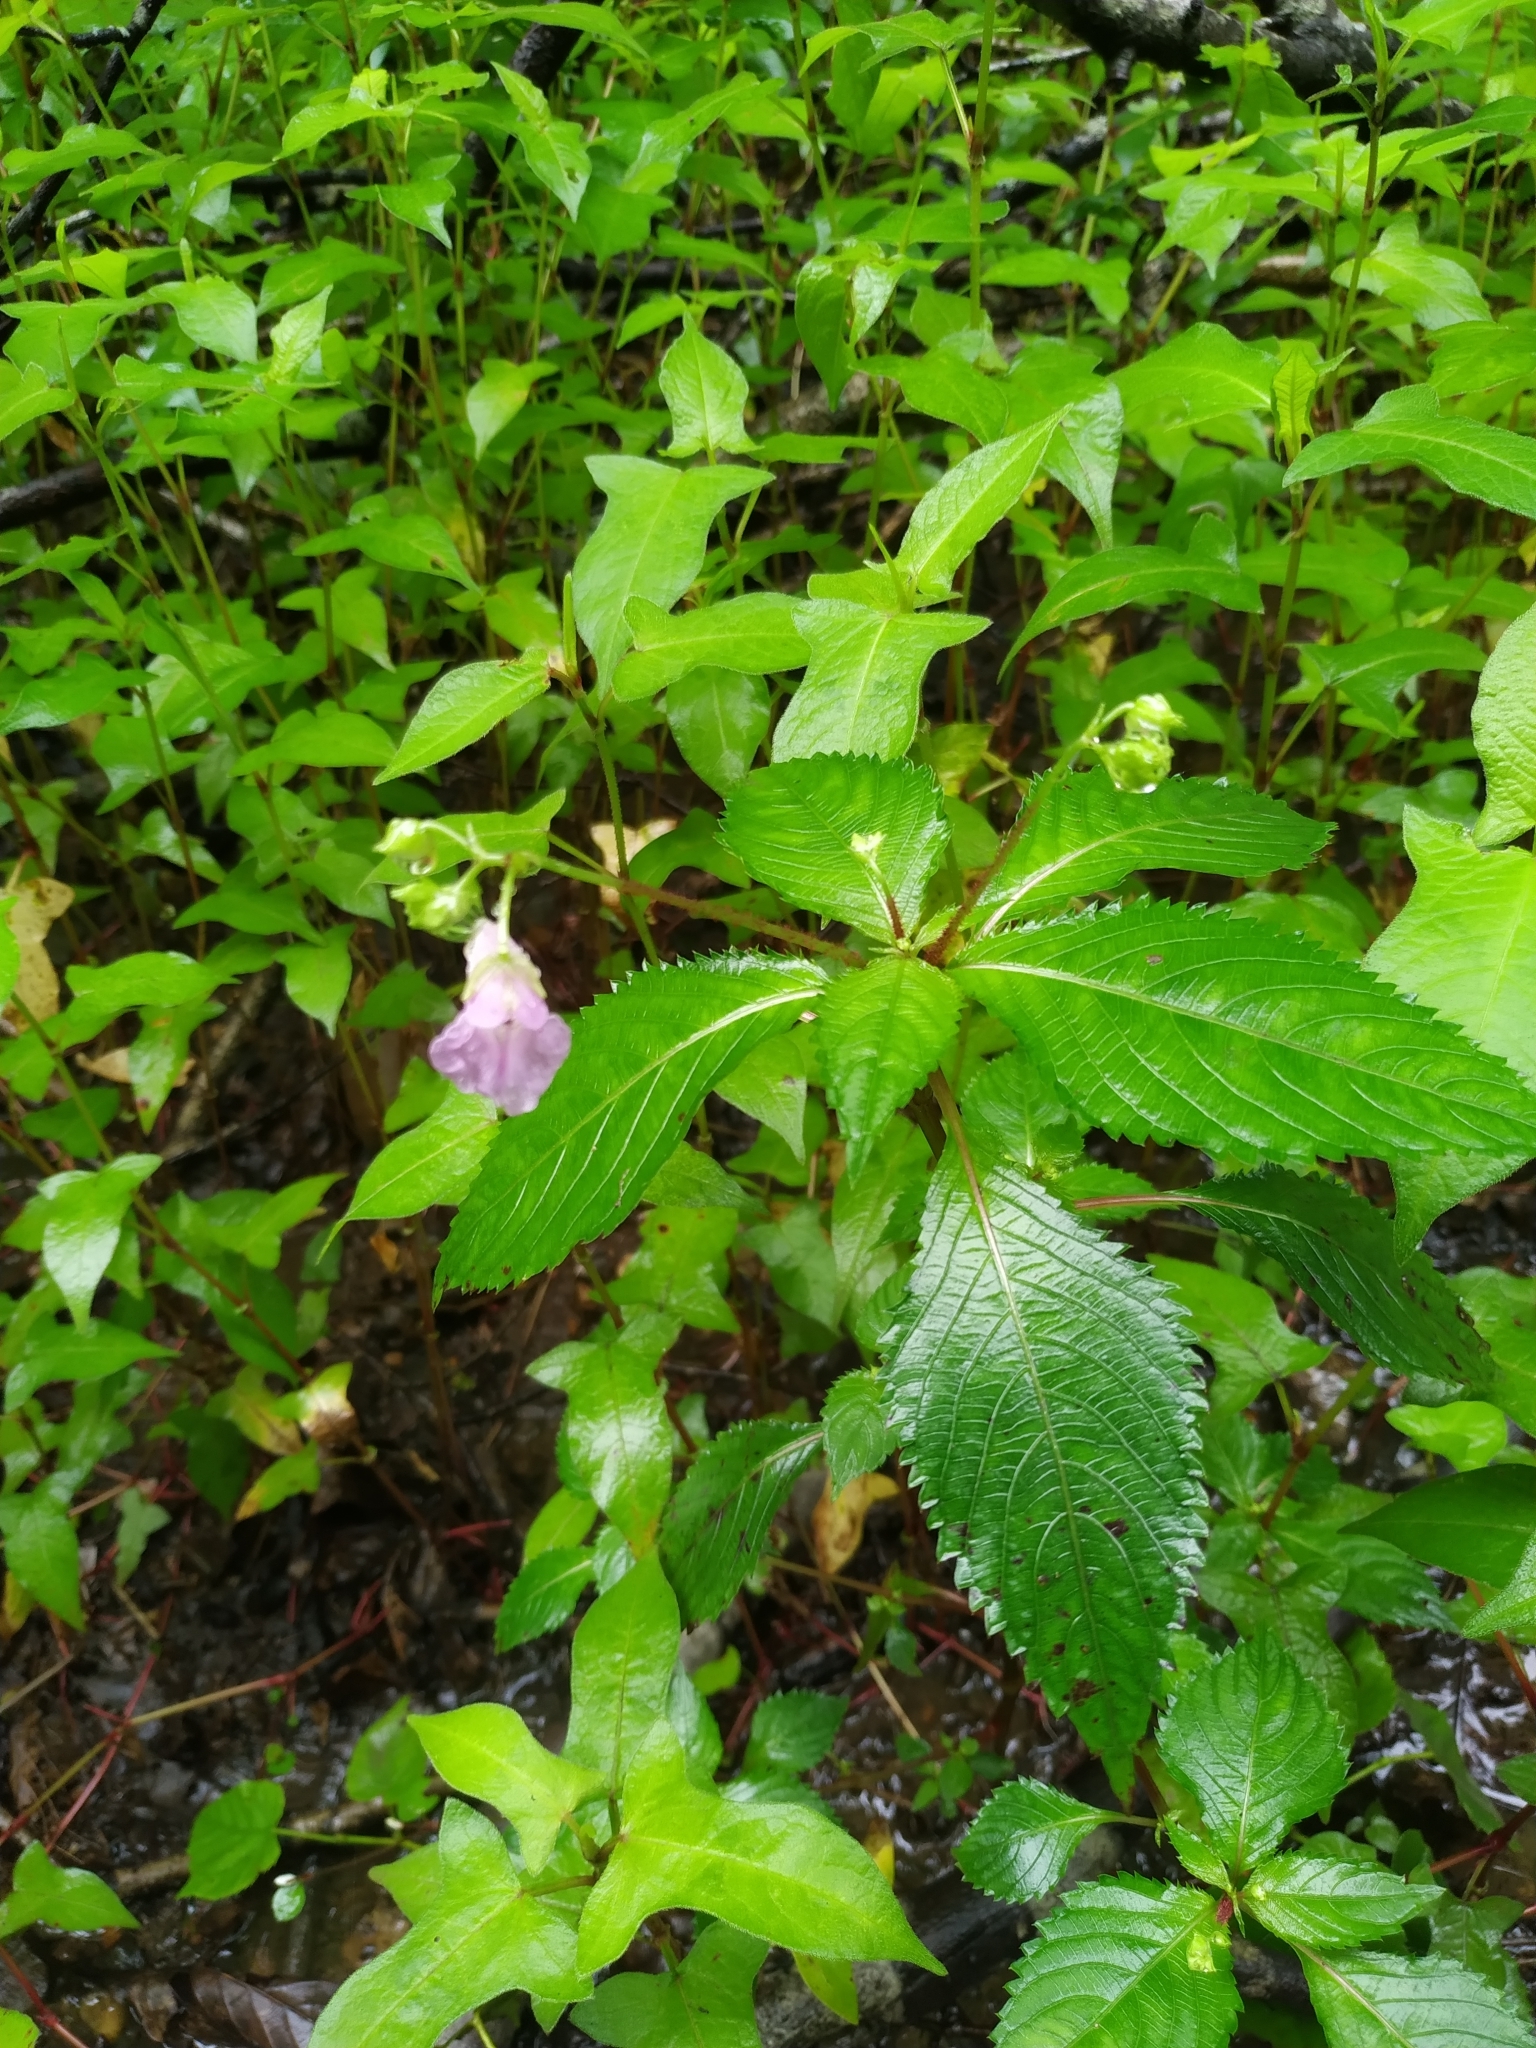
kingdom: Plantae
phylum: Tracheophyta
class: Magnoliopsida
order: Ericales
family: Balsaminaceae
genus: Impatiens
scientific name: Impatiens furcillata
